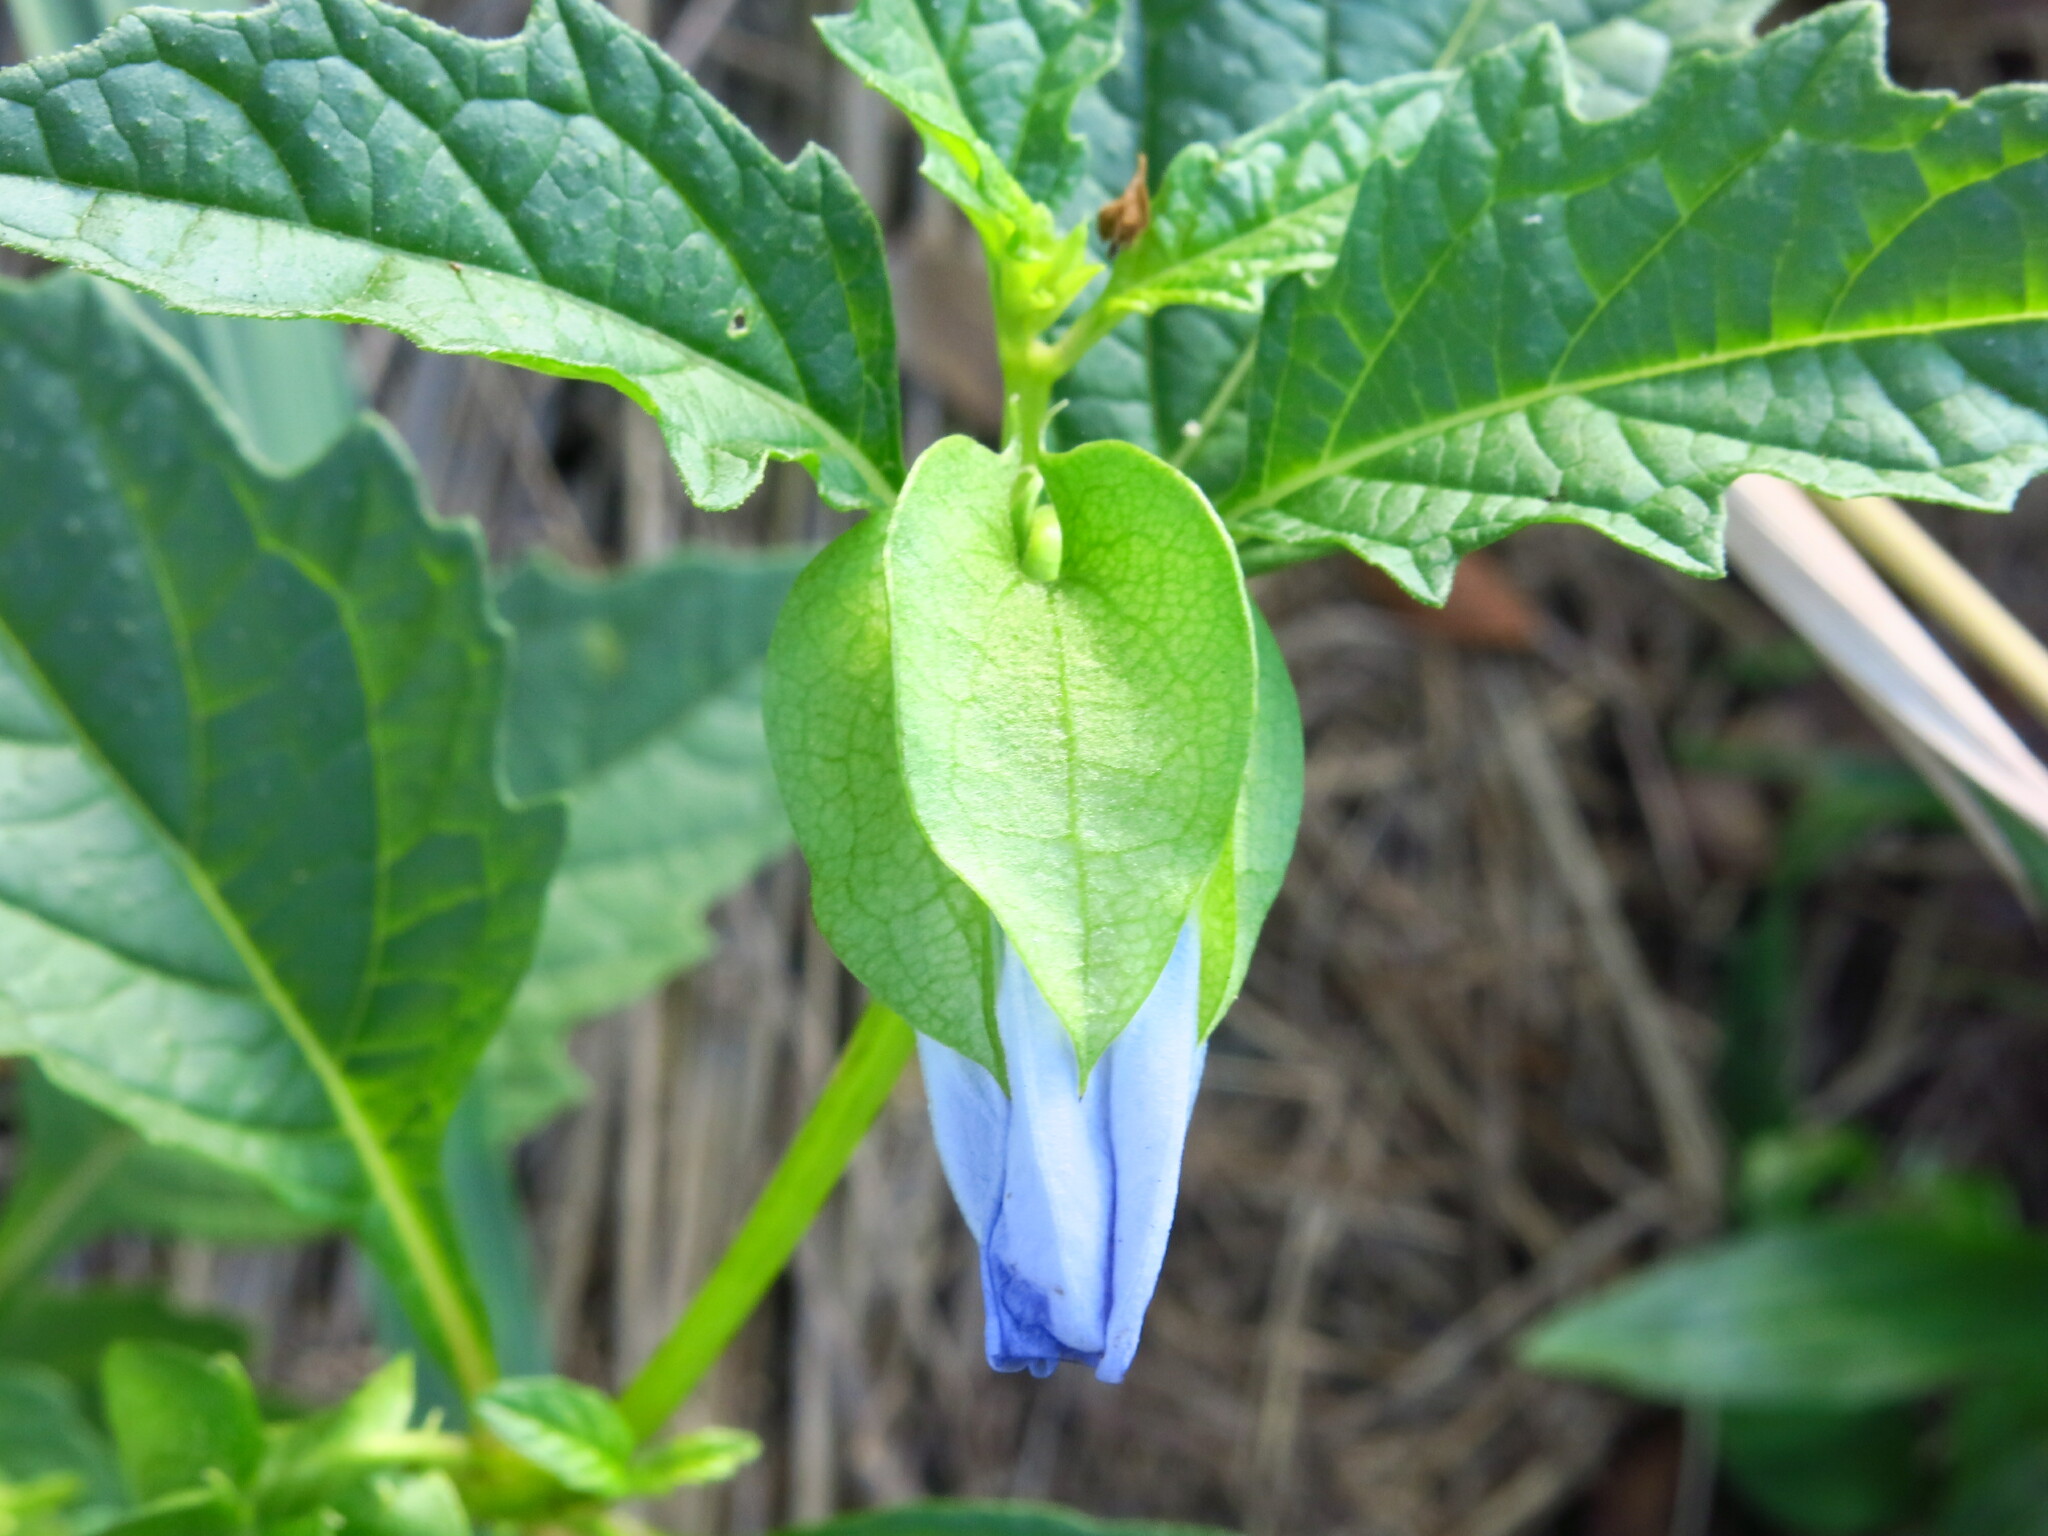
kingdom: Plantae
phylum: Tracheophyta
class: Magnoliopsida
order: Solanales
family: Solanaceae
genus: Nicandra
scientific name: Nicandra physalodes
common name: Apple-of-peru
